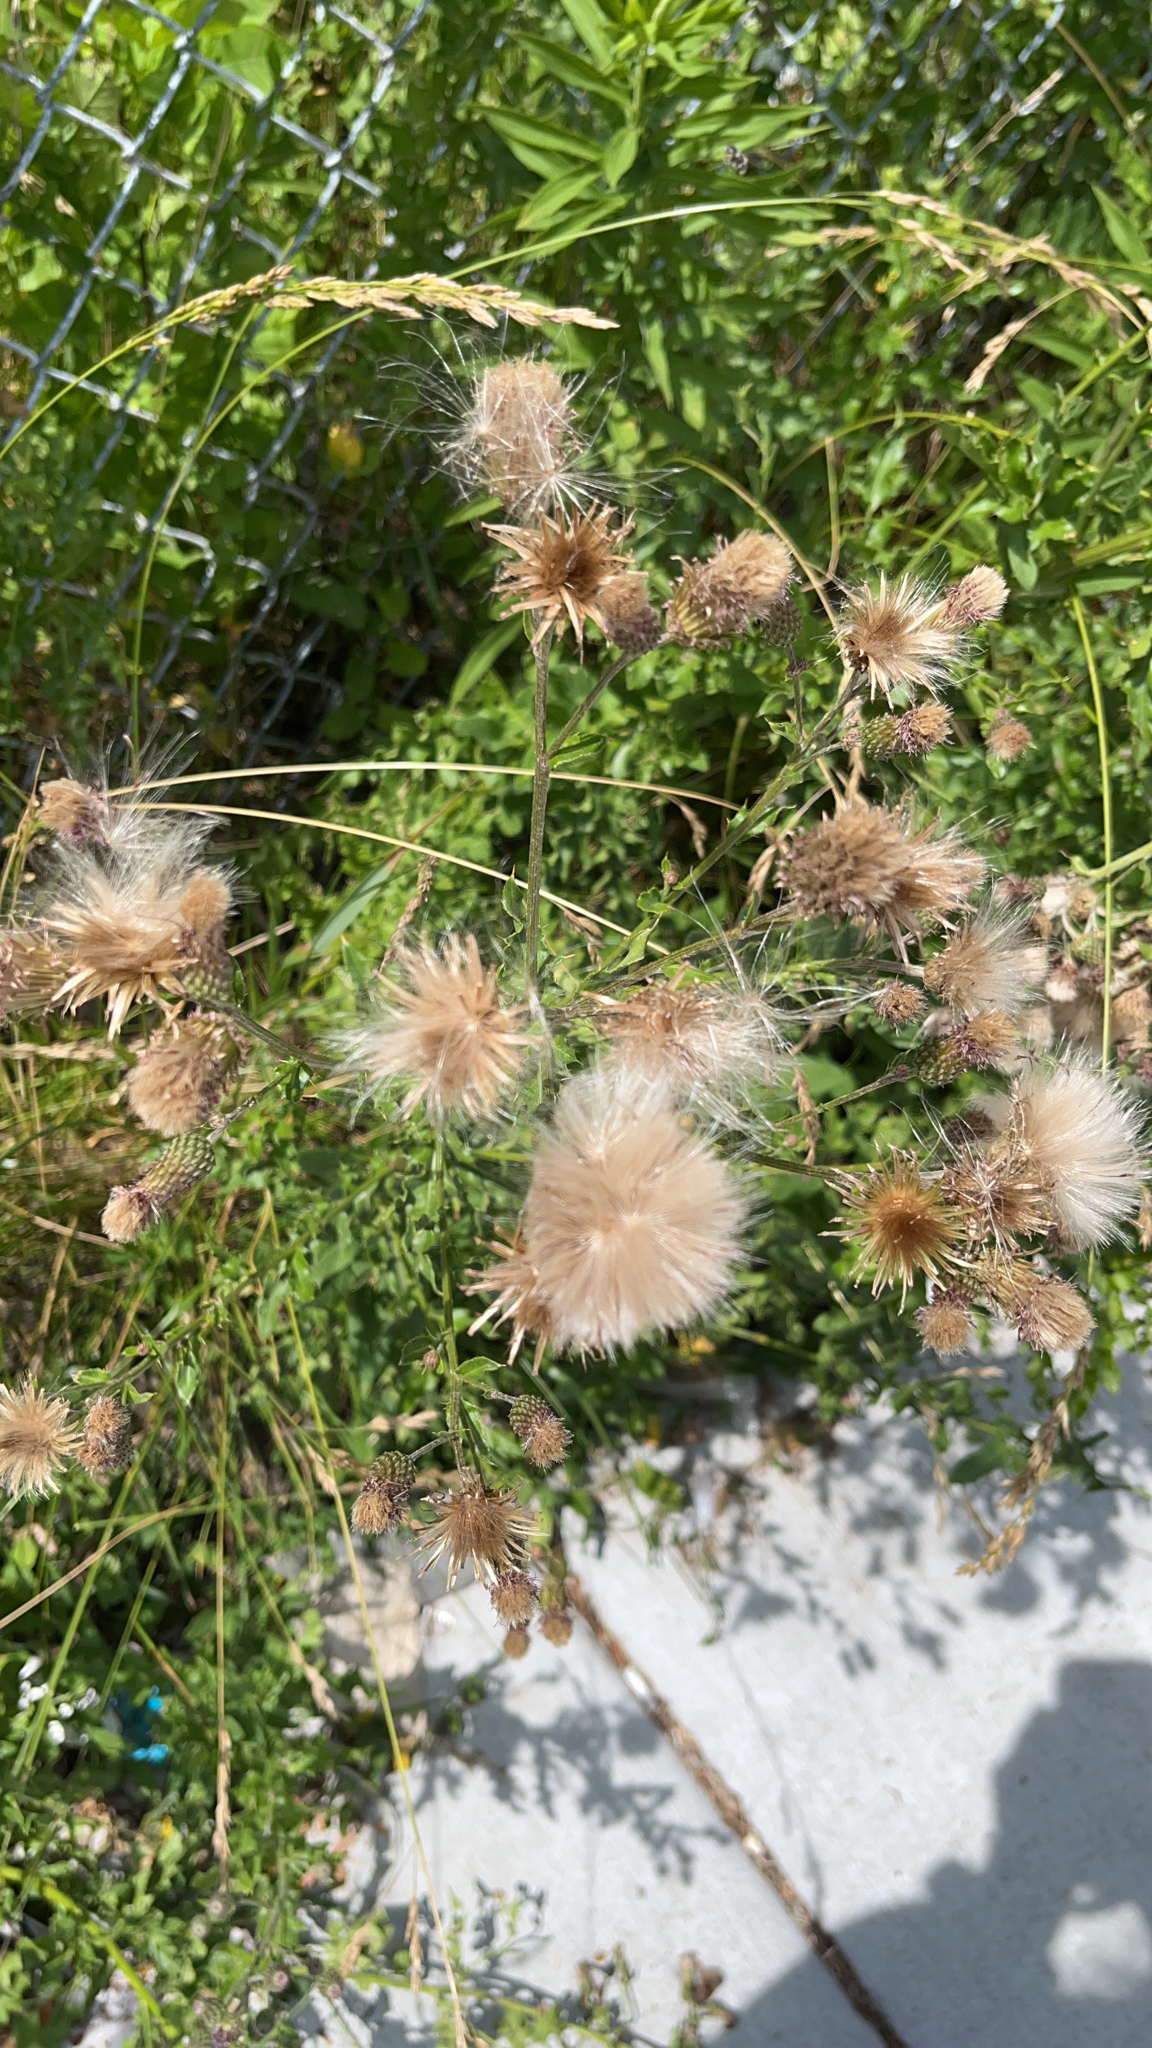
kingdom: Plantae
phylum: Tracheophyta
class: Magnoliopsida
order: Asterales
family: Asteraceae
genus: Cirsium
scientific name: Cirsium arvense
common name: Creeping thistle
